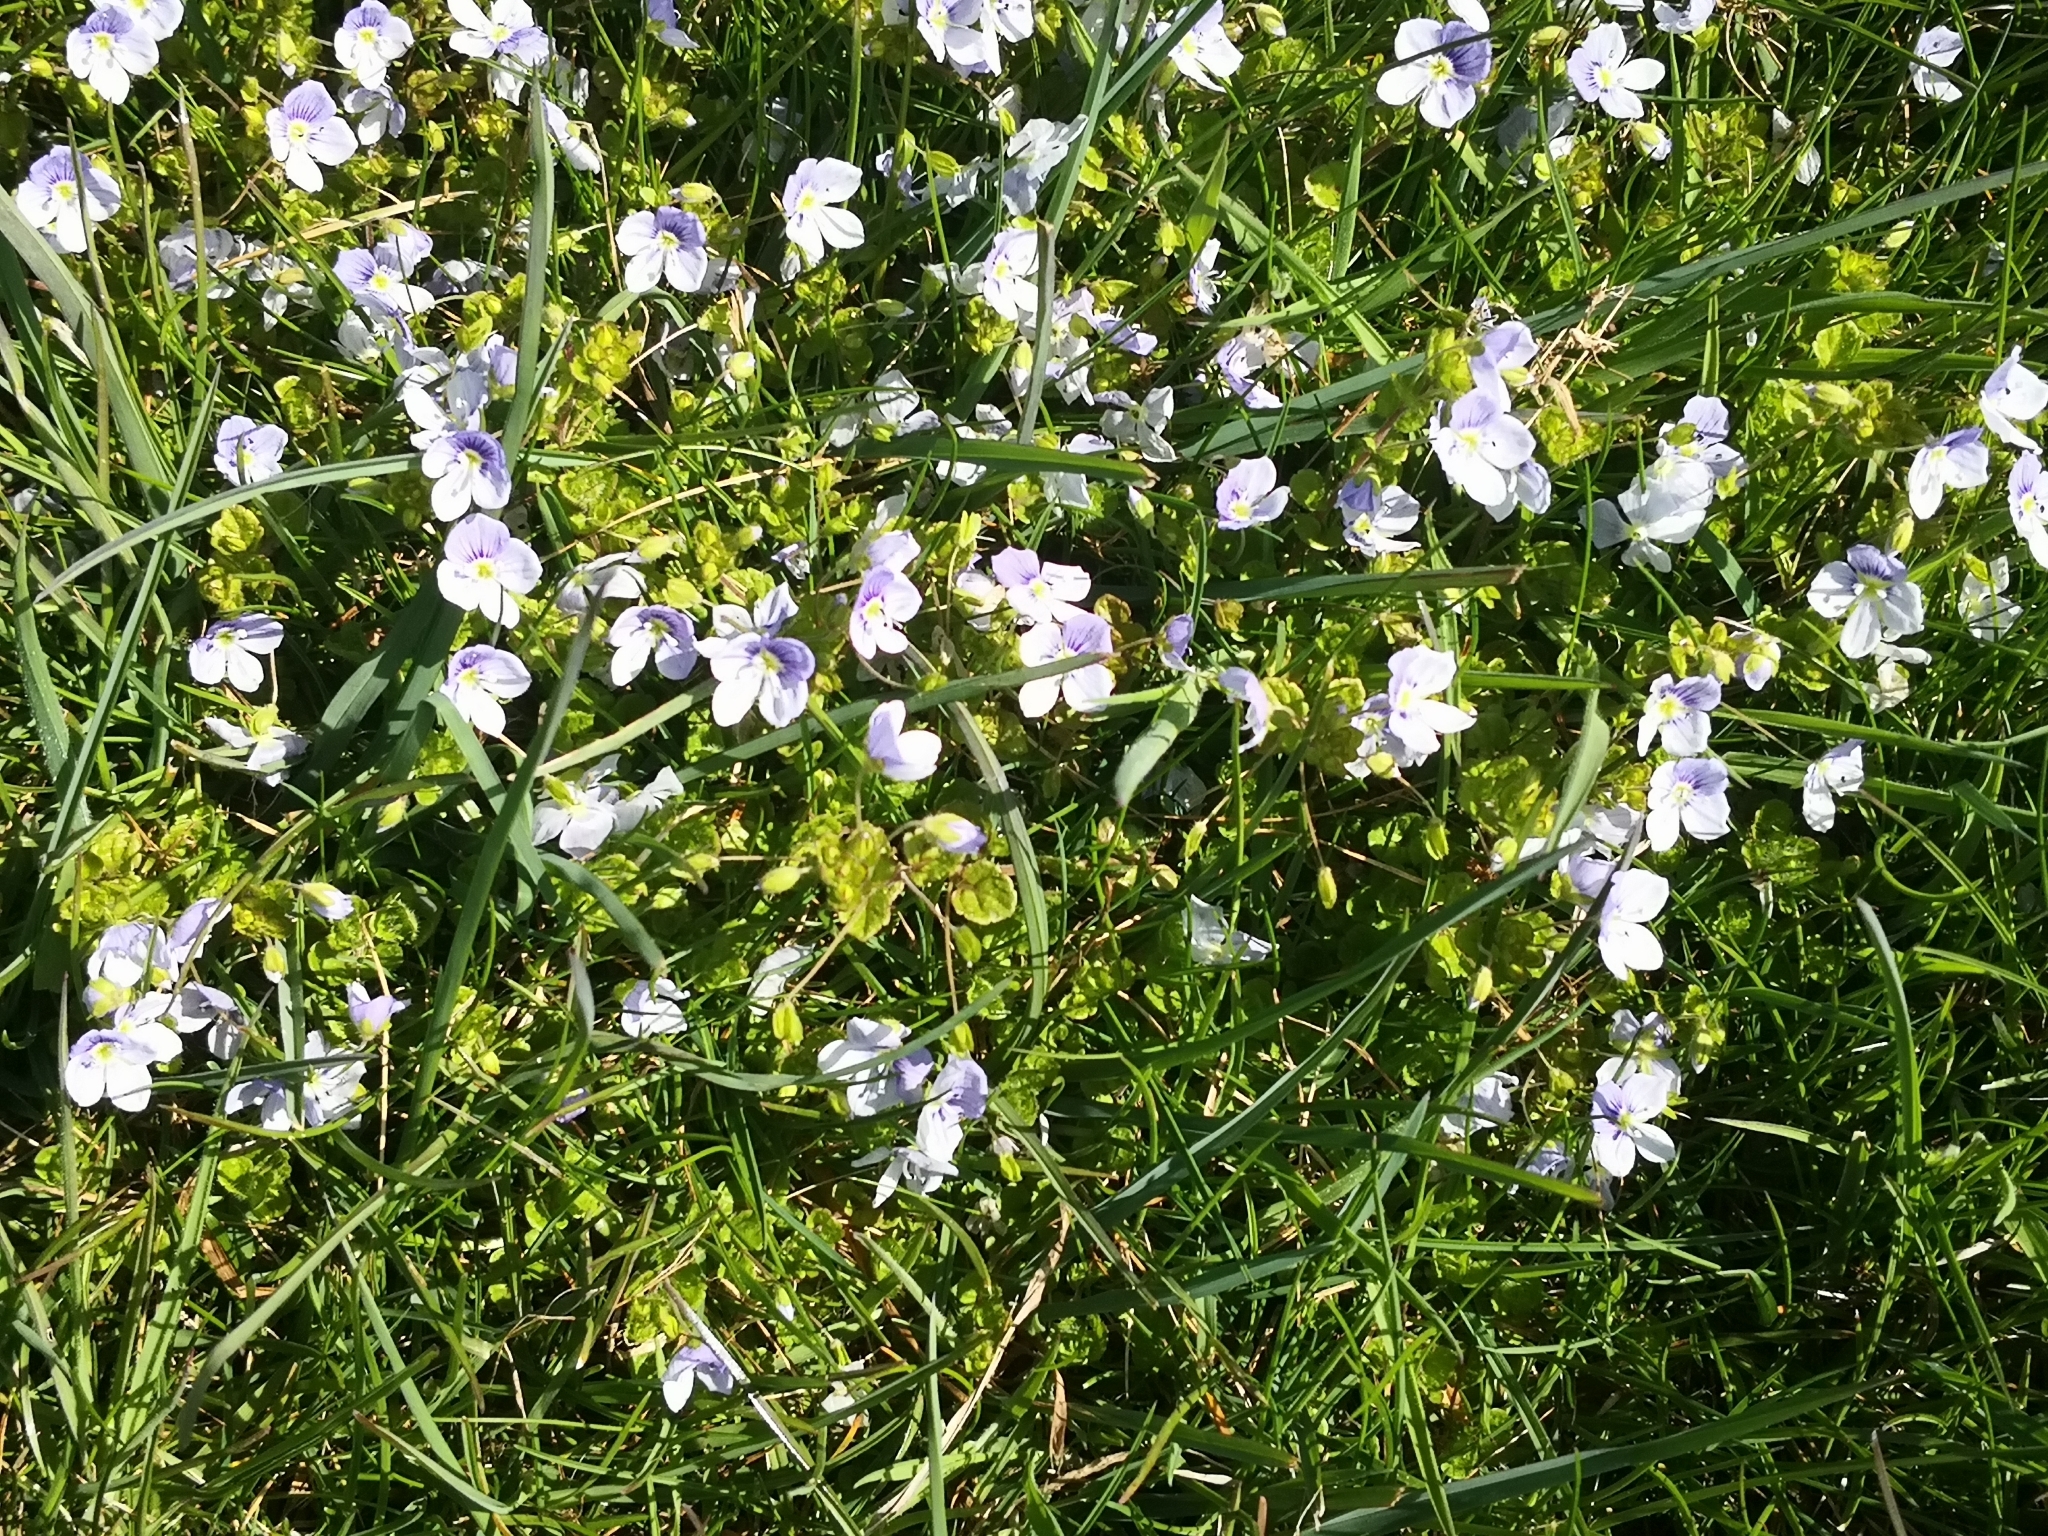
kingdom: Plantae
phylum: Tracheophyta
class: Magnoliopsida
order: Lamiales
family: Plantaginaceae
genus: Veronica
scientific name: Veronica filiformis
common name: Slender speedwell
